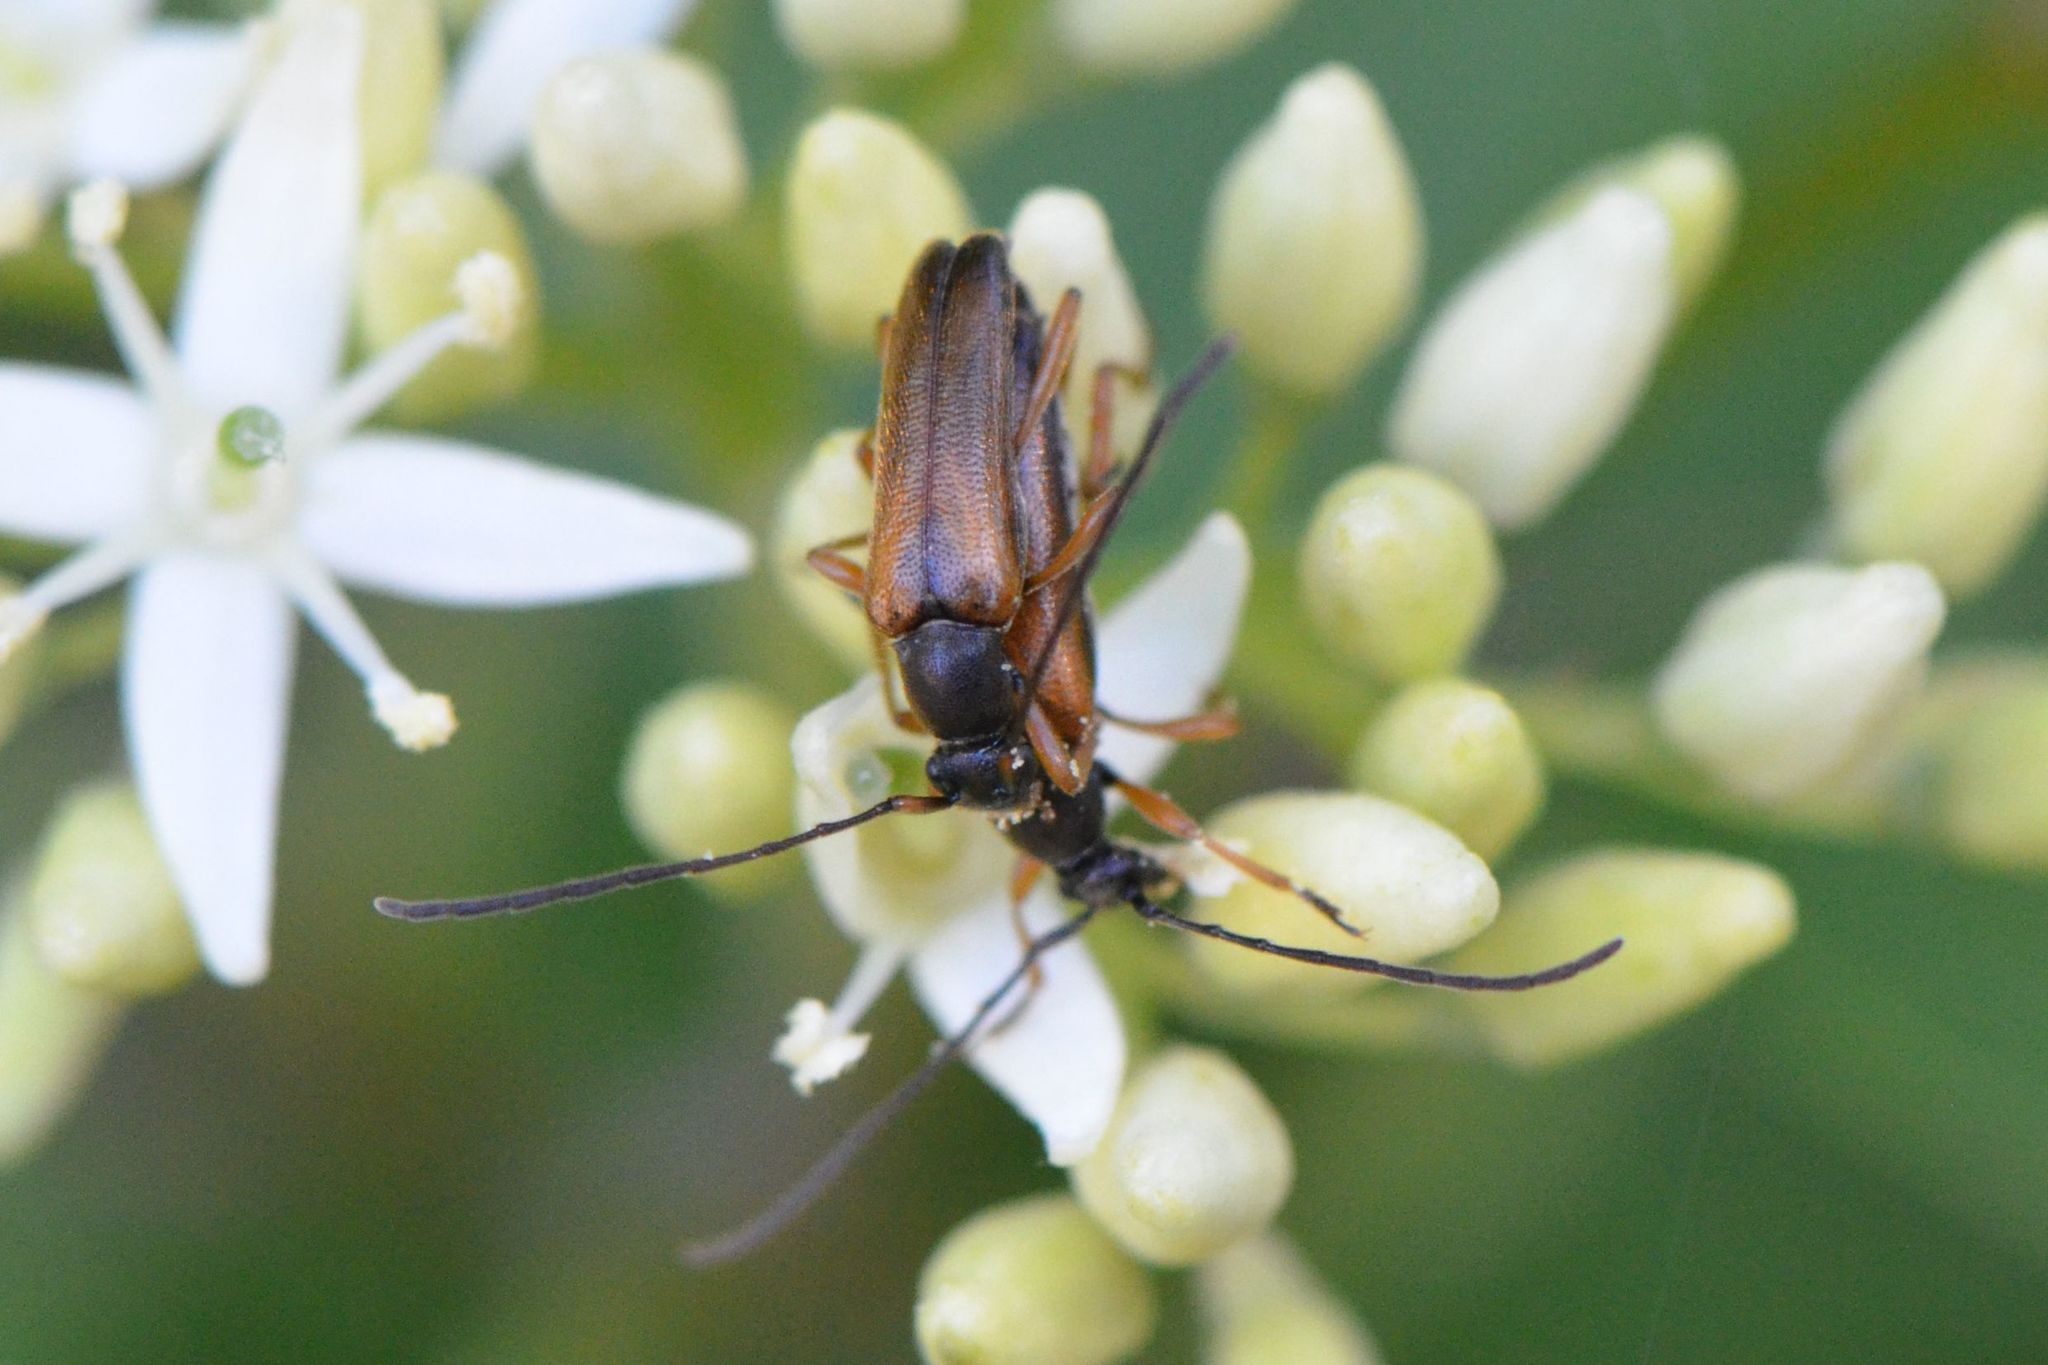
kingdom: Animalia
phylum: Arthropoda
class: Insecta
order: Coleoptera
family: Cerambycidae
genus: Alosterna
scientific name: Alosterna tabacicolor
